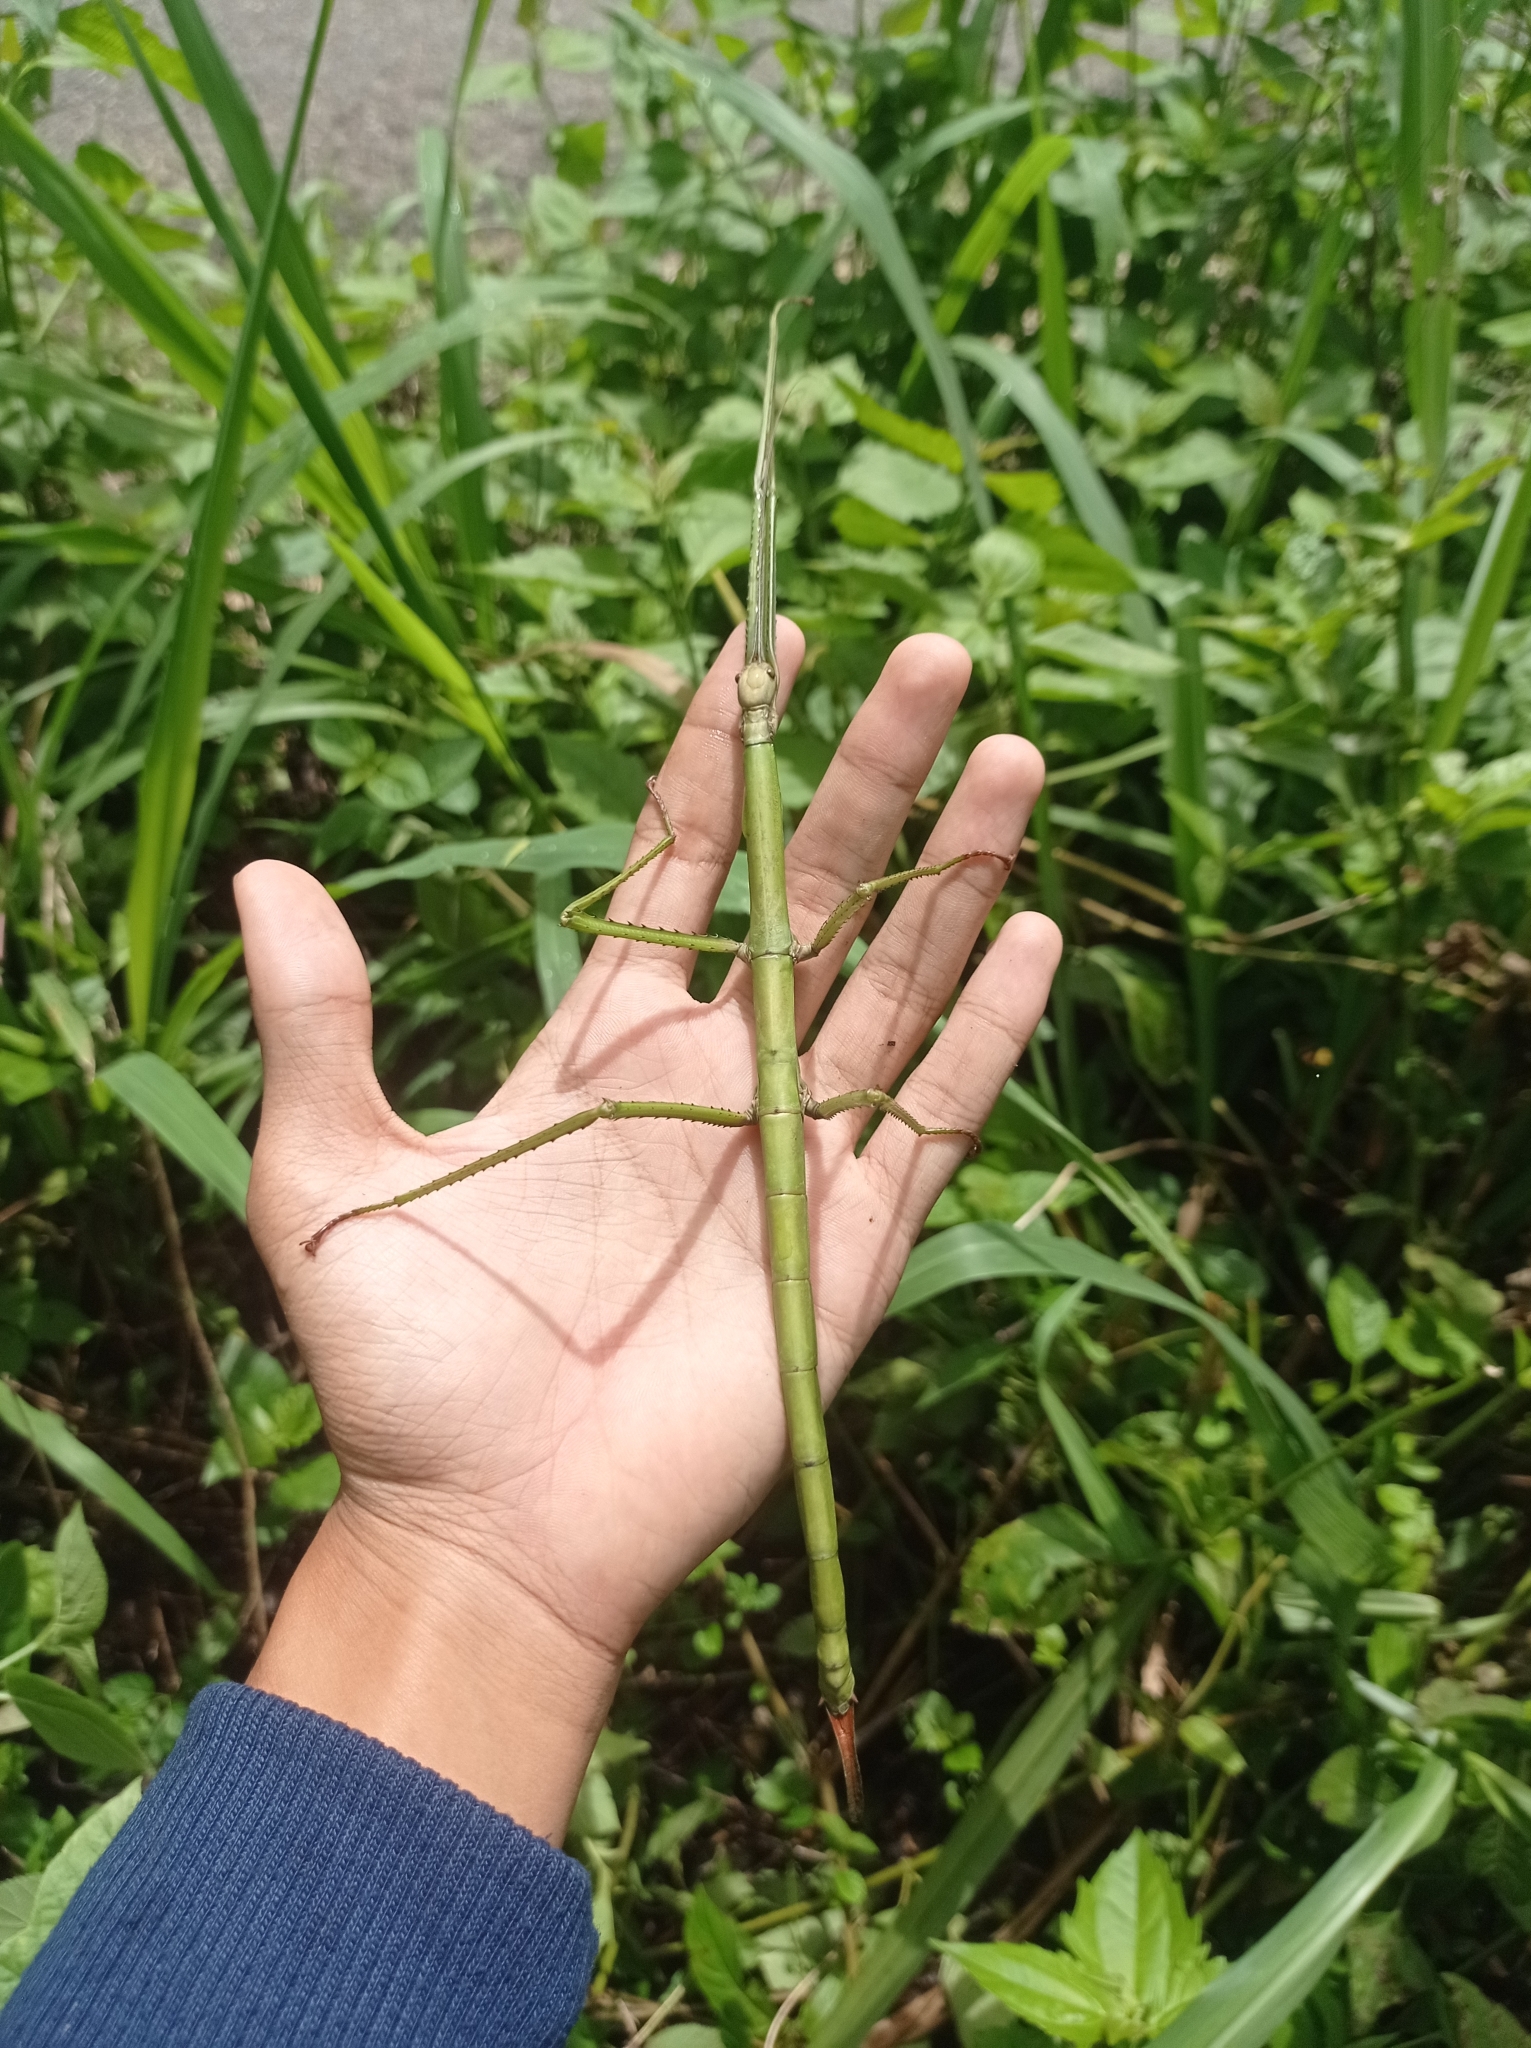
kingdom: Animalia
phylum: Arthropoda
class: Insecta
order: Phasmida
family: Phasmatidae
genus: Nesiophasma
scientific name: Nesiophasma
